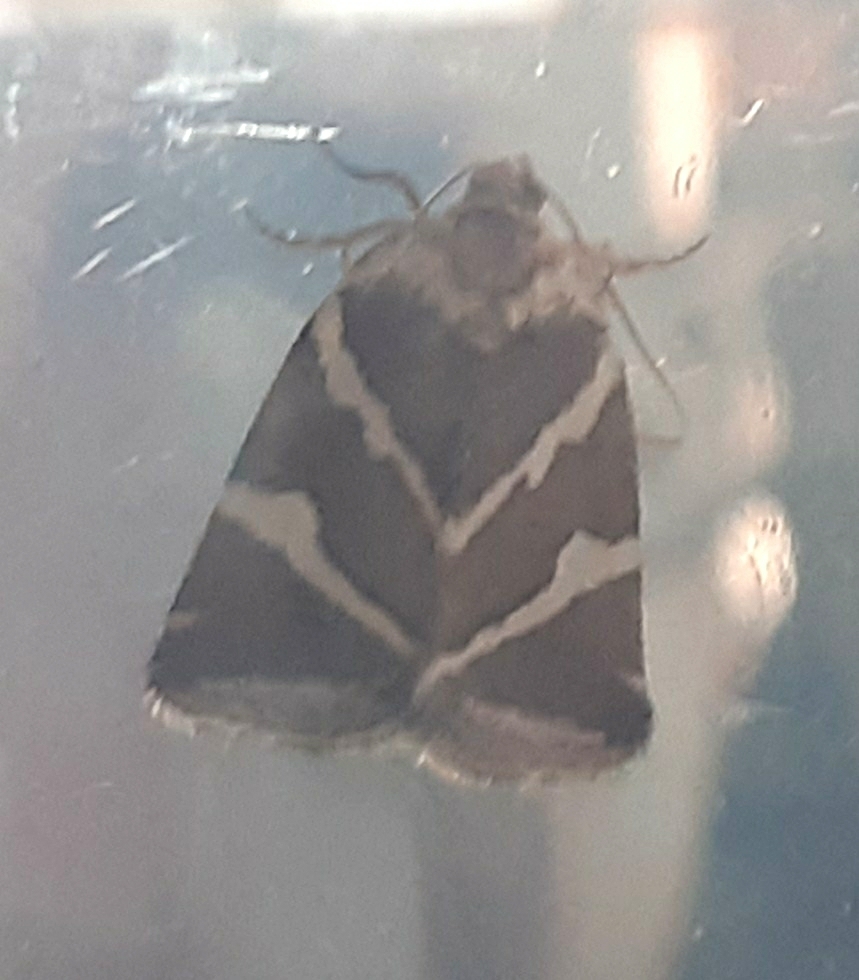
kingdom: Animalia
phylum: Arthropoda
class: Insecta
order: Lepidoptera
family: Noctuidae
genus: Deltote
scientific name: Deltote bankiana
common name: Silver barred
